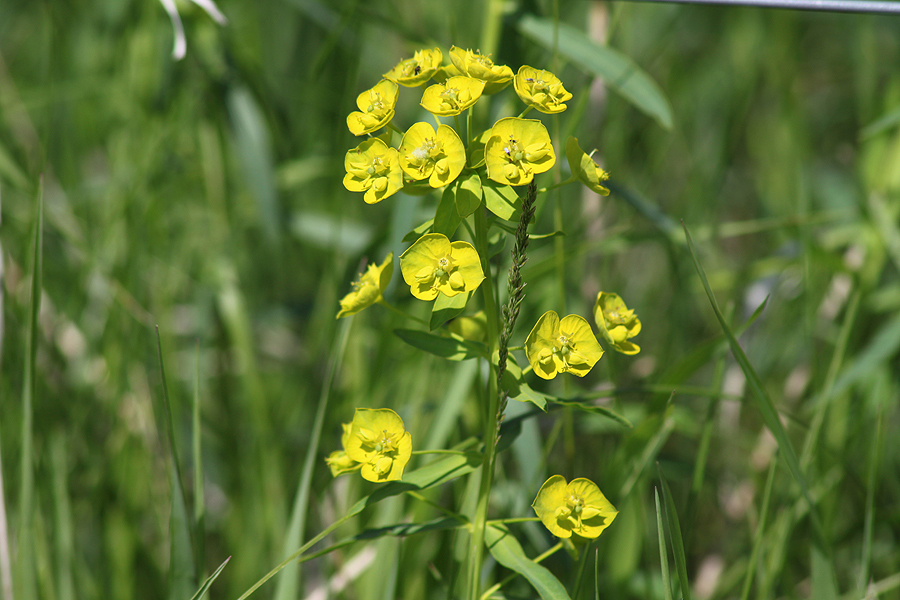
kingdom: Plantae
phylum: Tracheophyta
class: Magnoliopsida
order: Malpighiales
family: Euphorbiaceae
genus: Euphorbia
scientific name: Euphorbia virgata
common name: Leafy spurge
